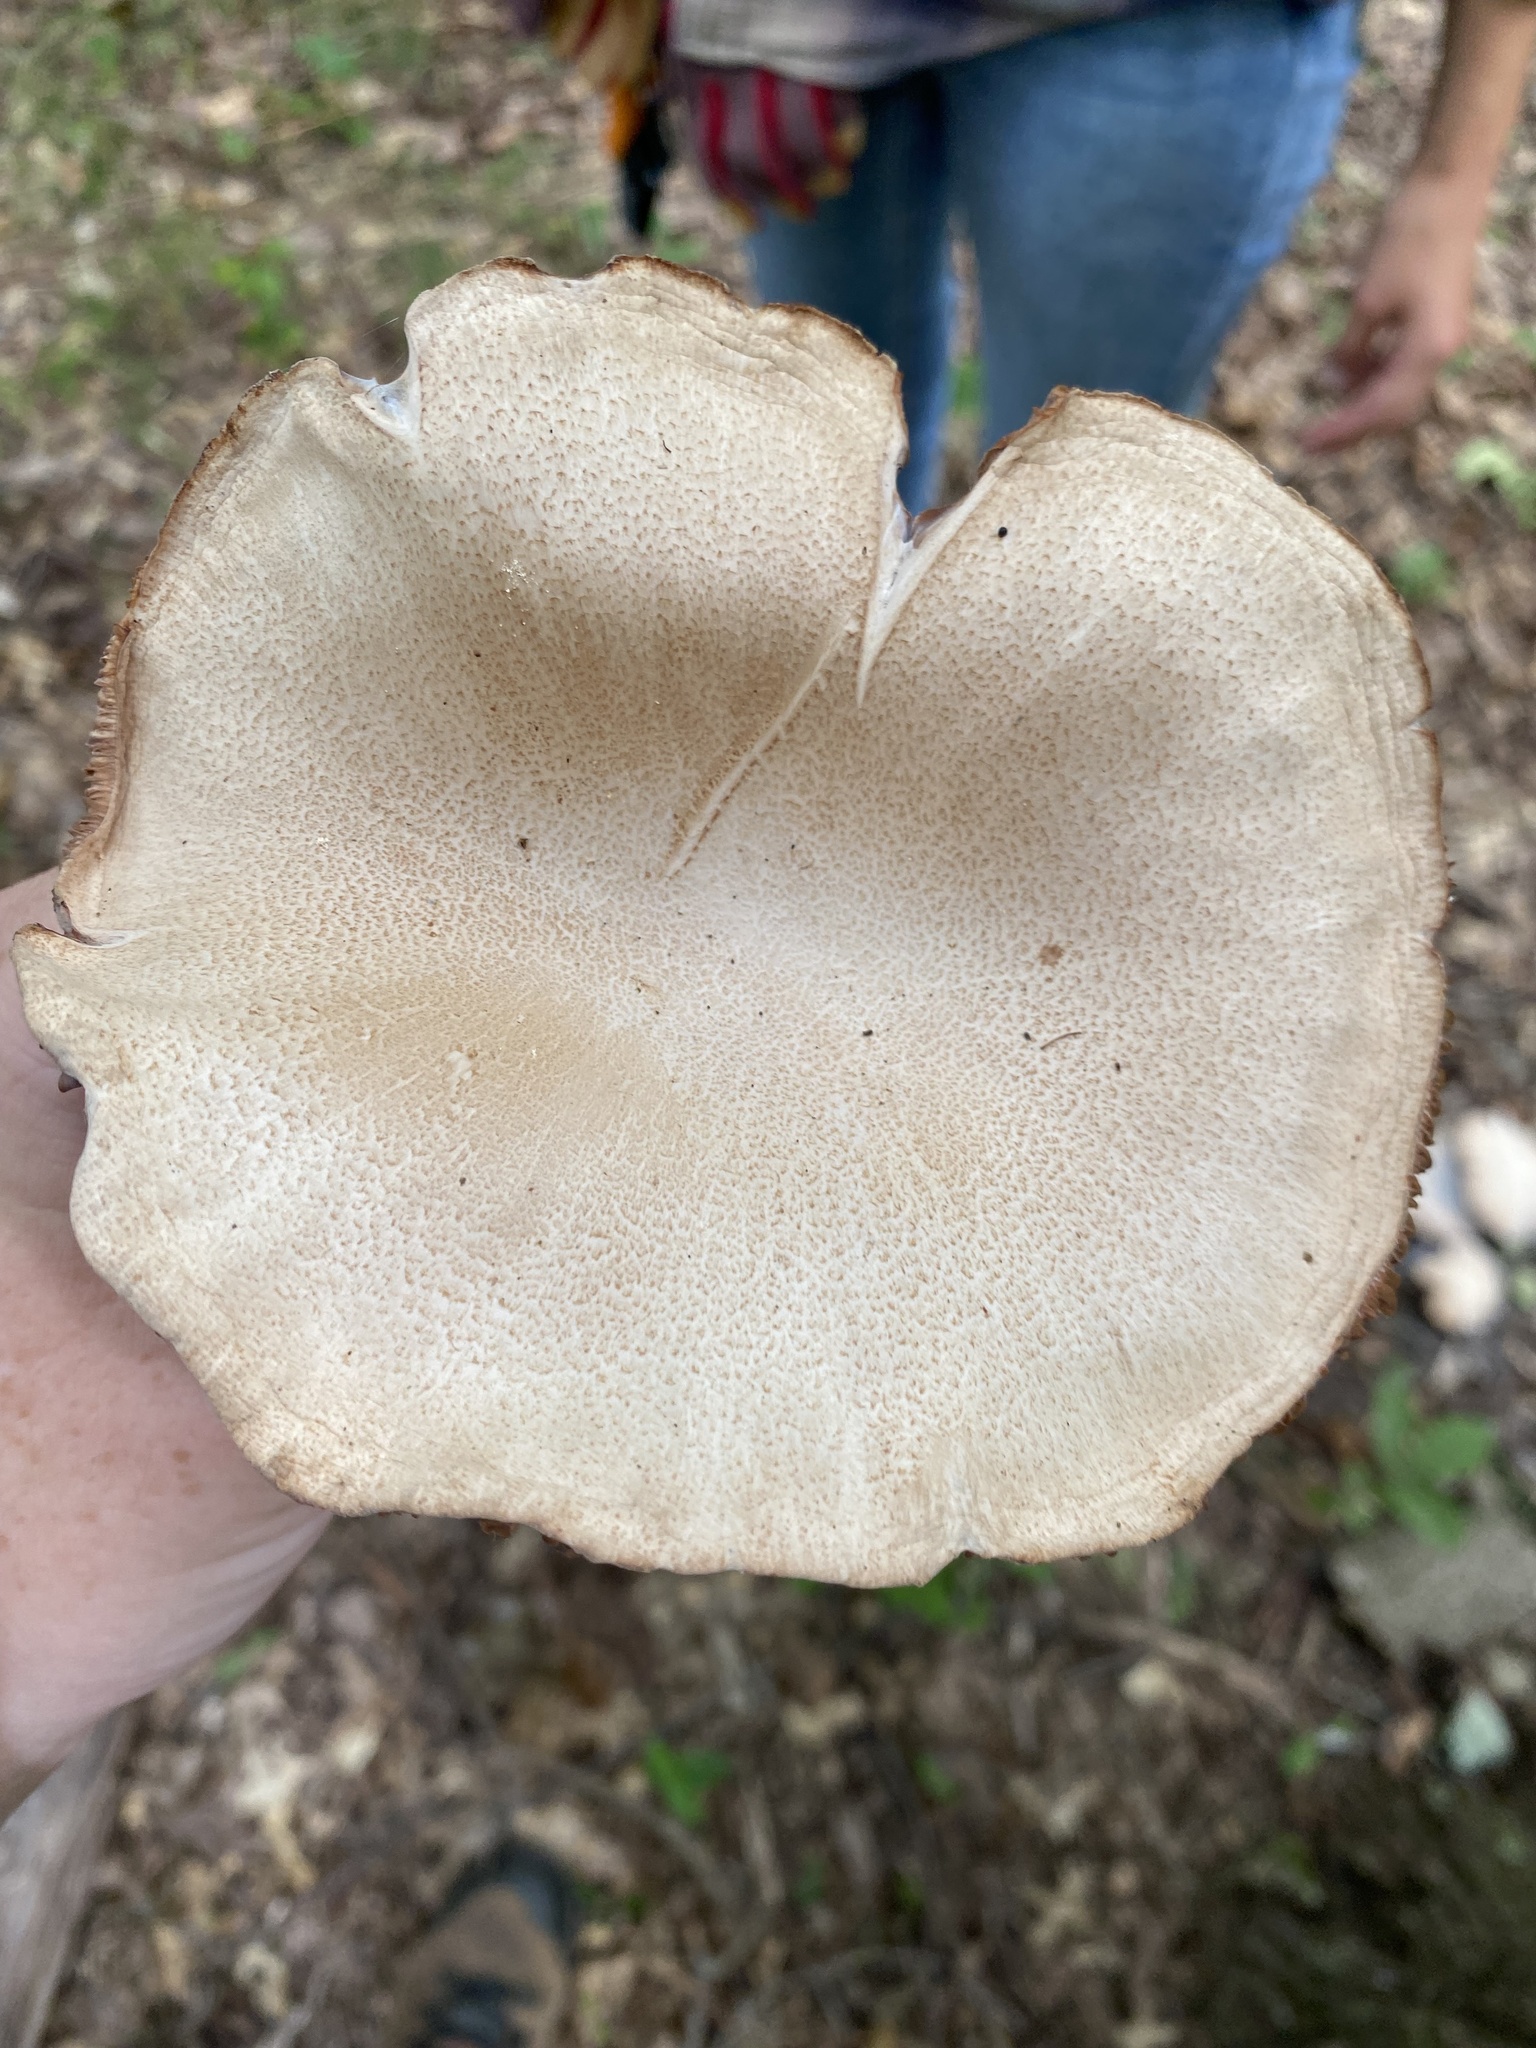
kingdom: Fungi
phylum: Basidiomycota
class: Agaricomycetes
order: Agaricales
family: Hydnangiaceae
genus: Laccaria
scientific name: Laccaria ochropurpurea
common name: Purple laccaria
